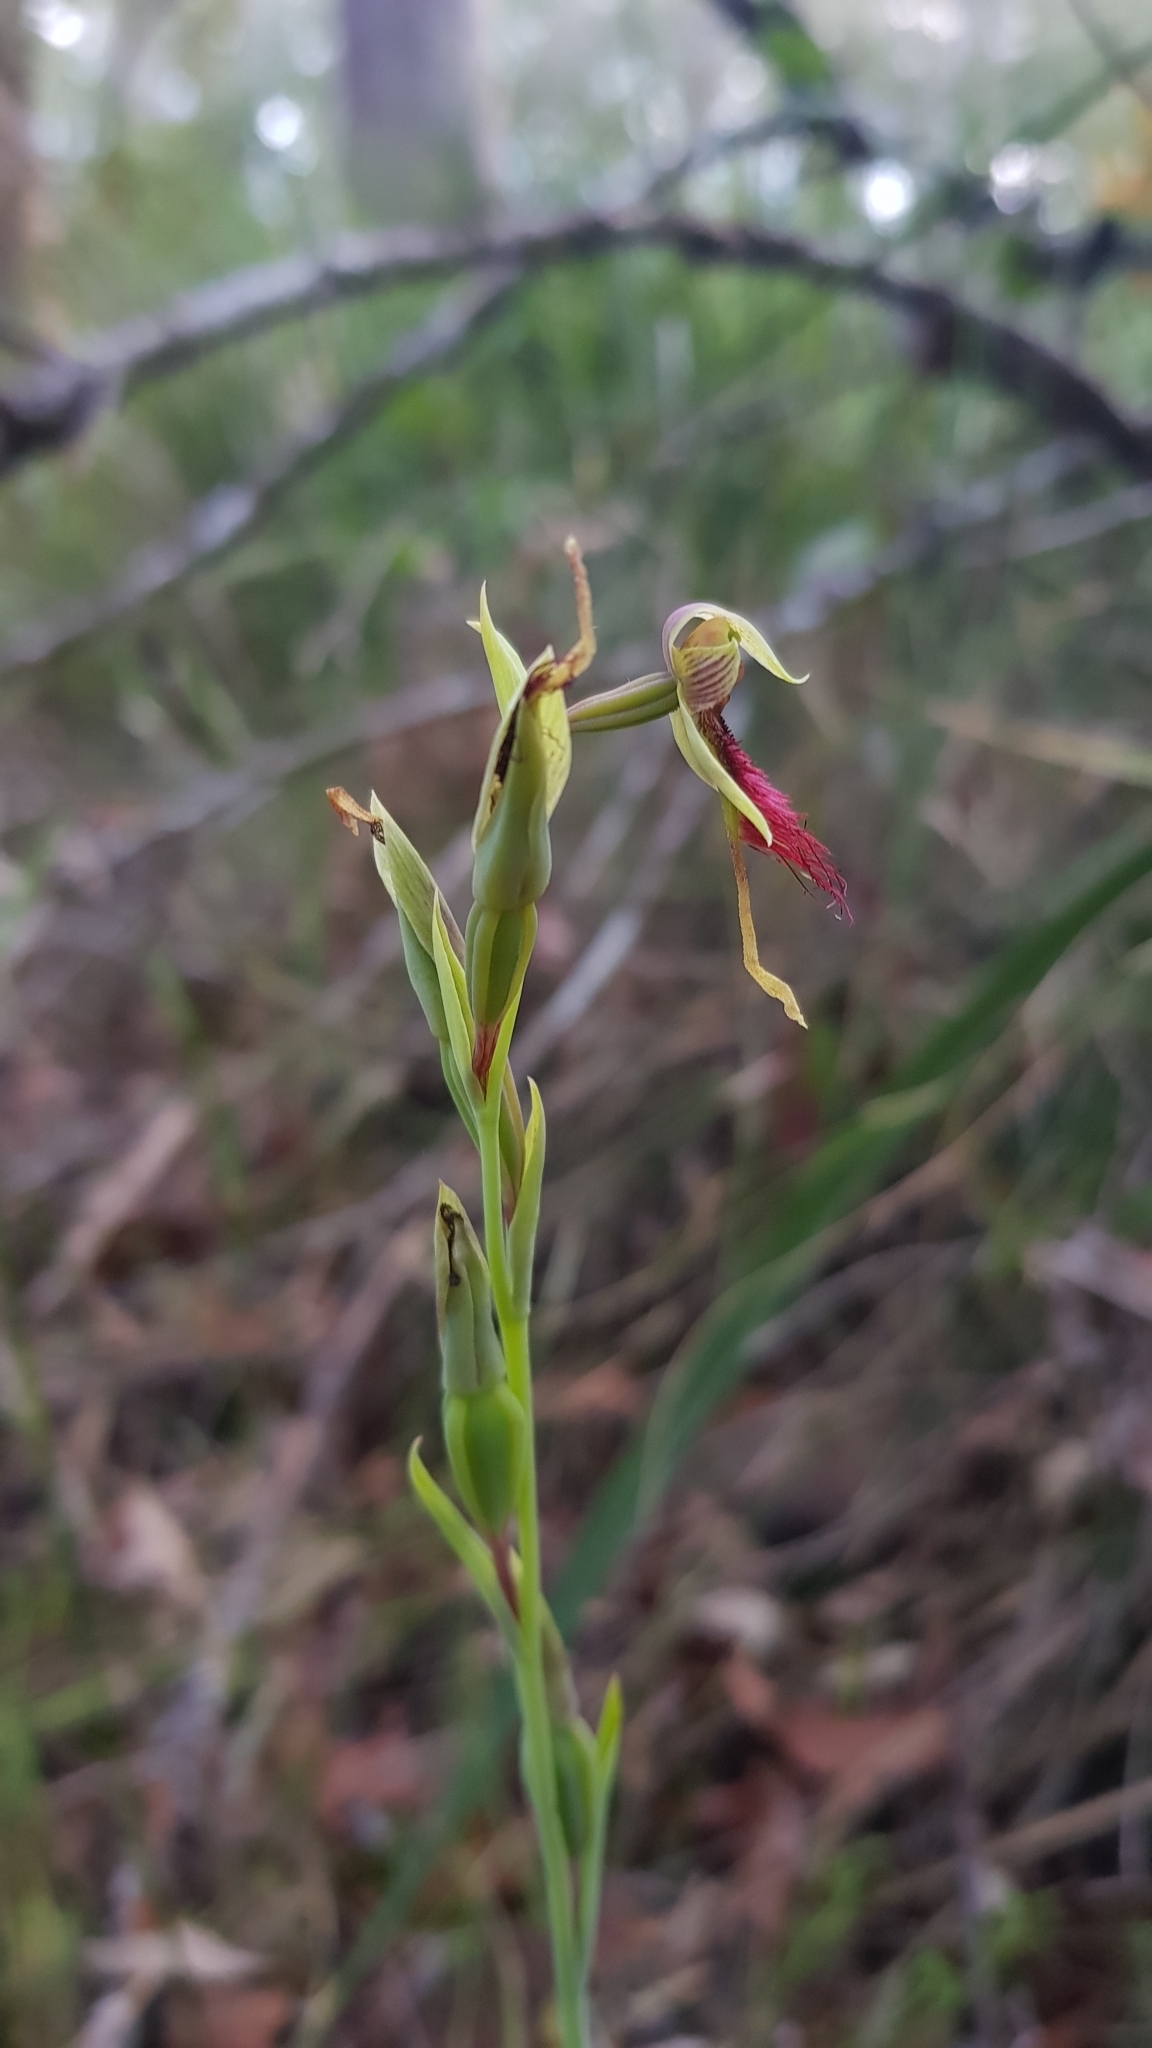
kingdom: Plantae
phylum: Tracheophyta
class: Liliopsida
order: Asparagales
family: Orchidaceae
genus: Calochilus
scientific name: Calochilus paludosus
